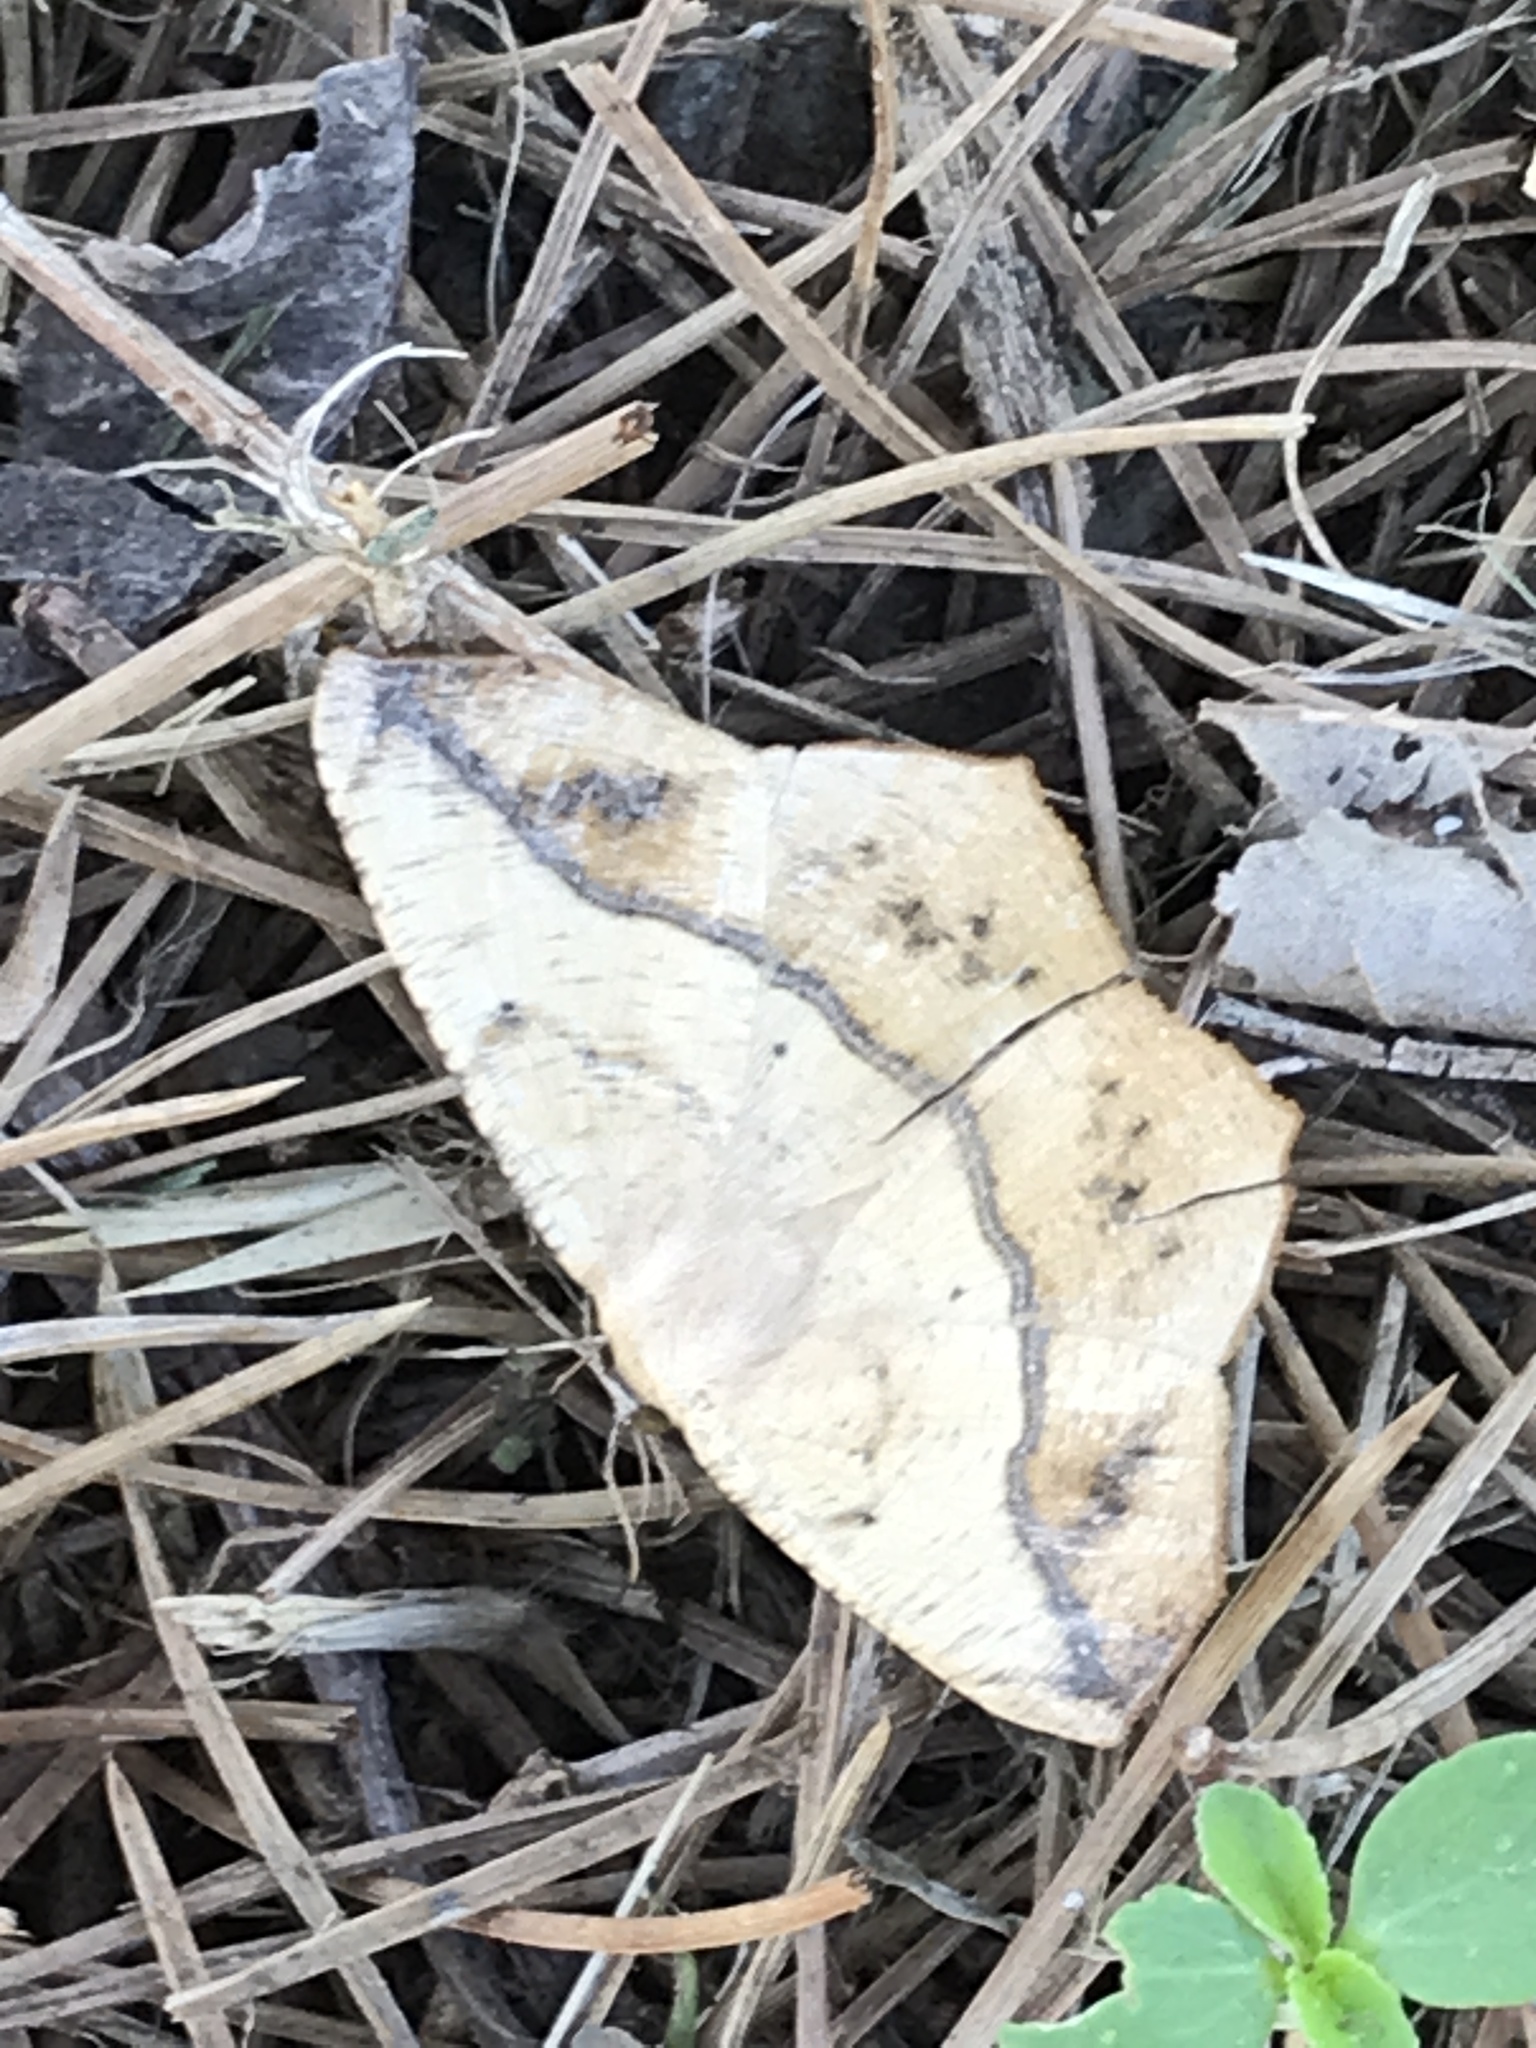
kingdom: Animalia
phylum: Arthropoda
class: Insecta
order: Lepidoptera
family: Geometridae
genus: Prochoerodes
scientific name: Prochoerodes lineola
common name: Large maple spanworm
